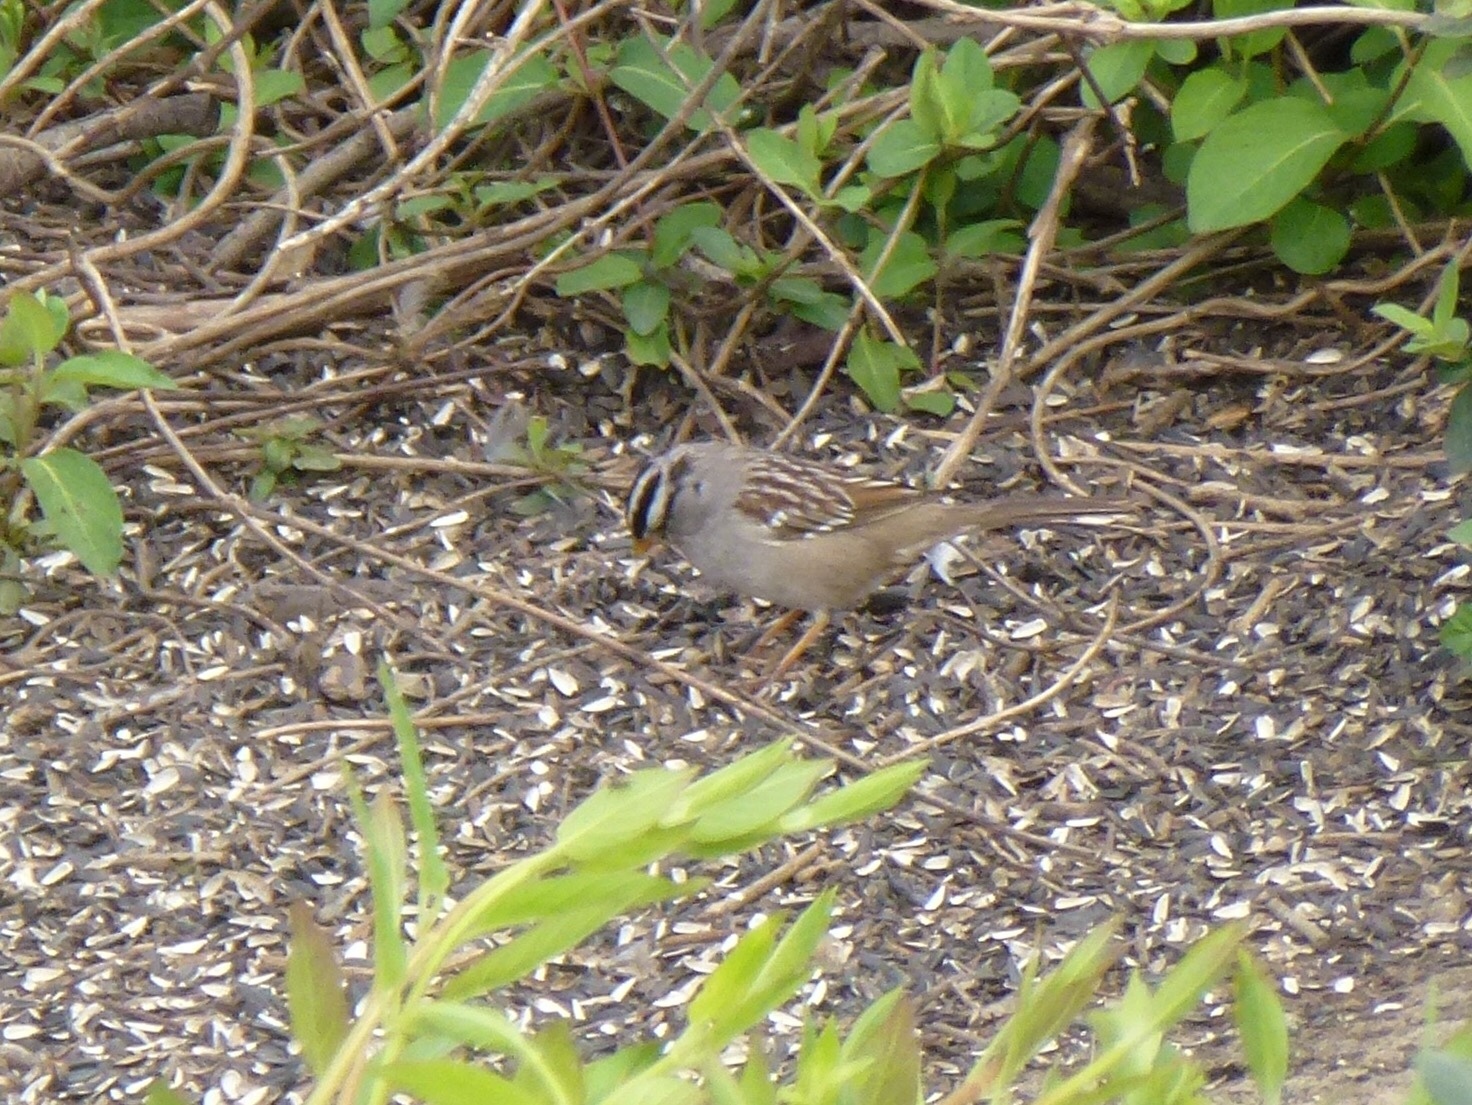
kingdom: Animalia
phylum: Chordata
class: Aves
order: Passeriformes
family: Passerellidae
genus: Zonotrichia
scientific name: Zonotrichia leucophrys
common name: White-crowned sparrow
